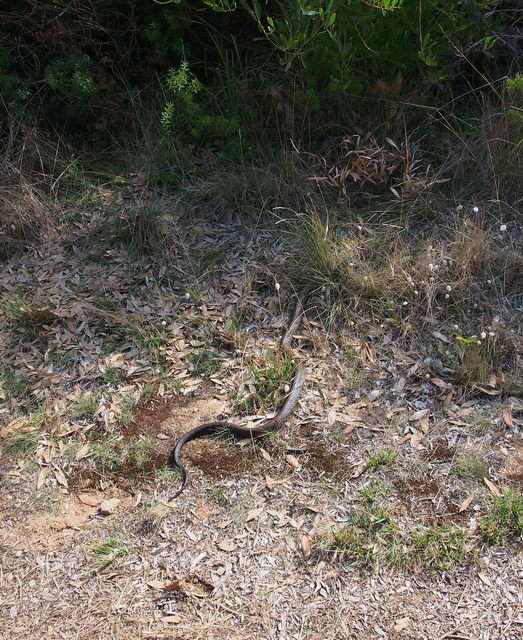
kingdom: Animalia
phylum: Chordata
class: Squamata
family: Elapidae
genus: Pseudonaja
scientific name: Pseudonaja textilis
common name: Eastern brown snake
